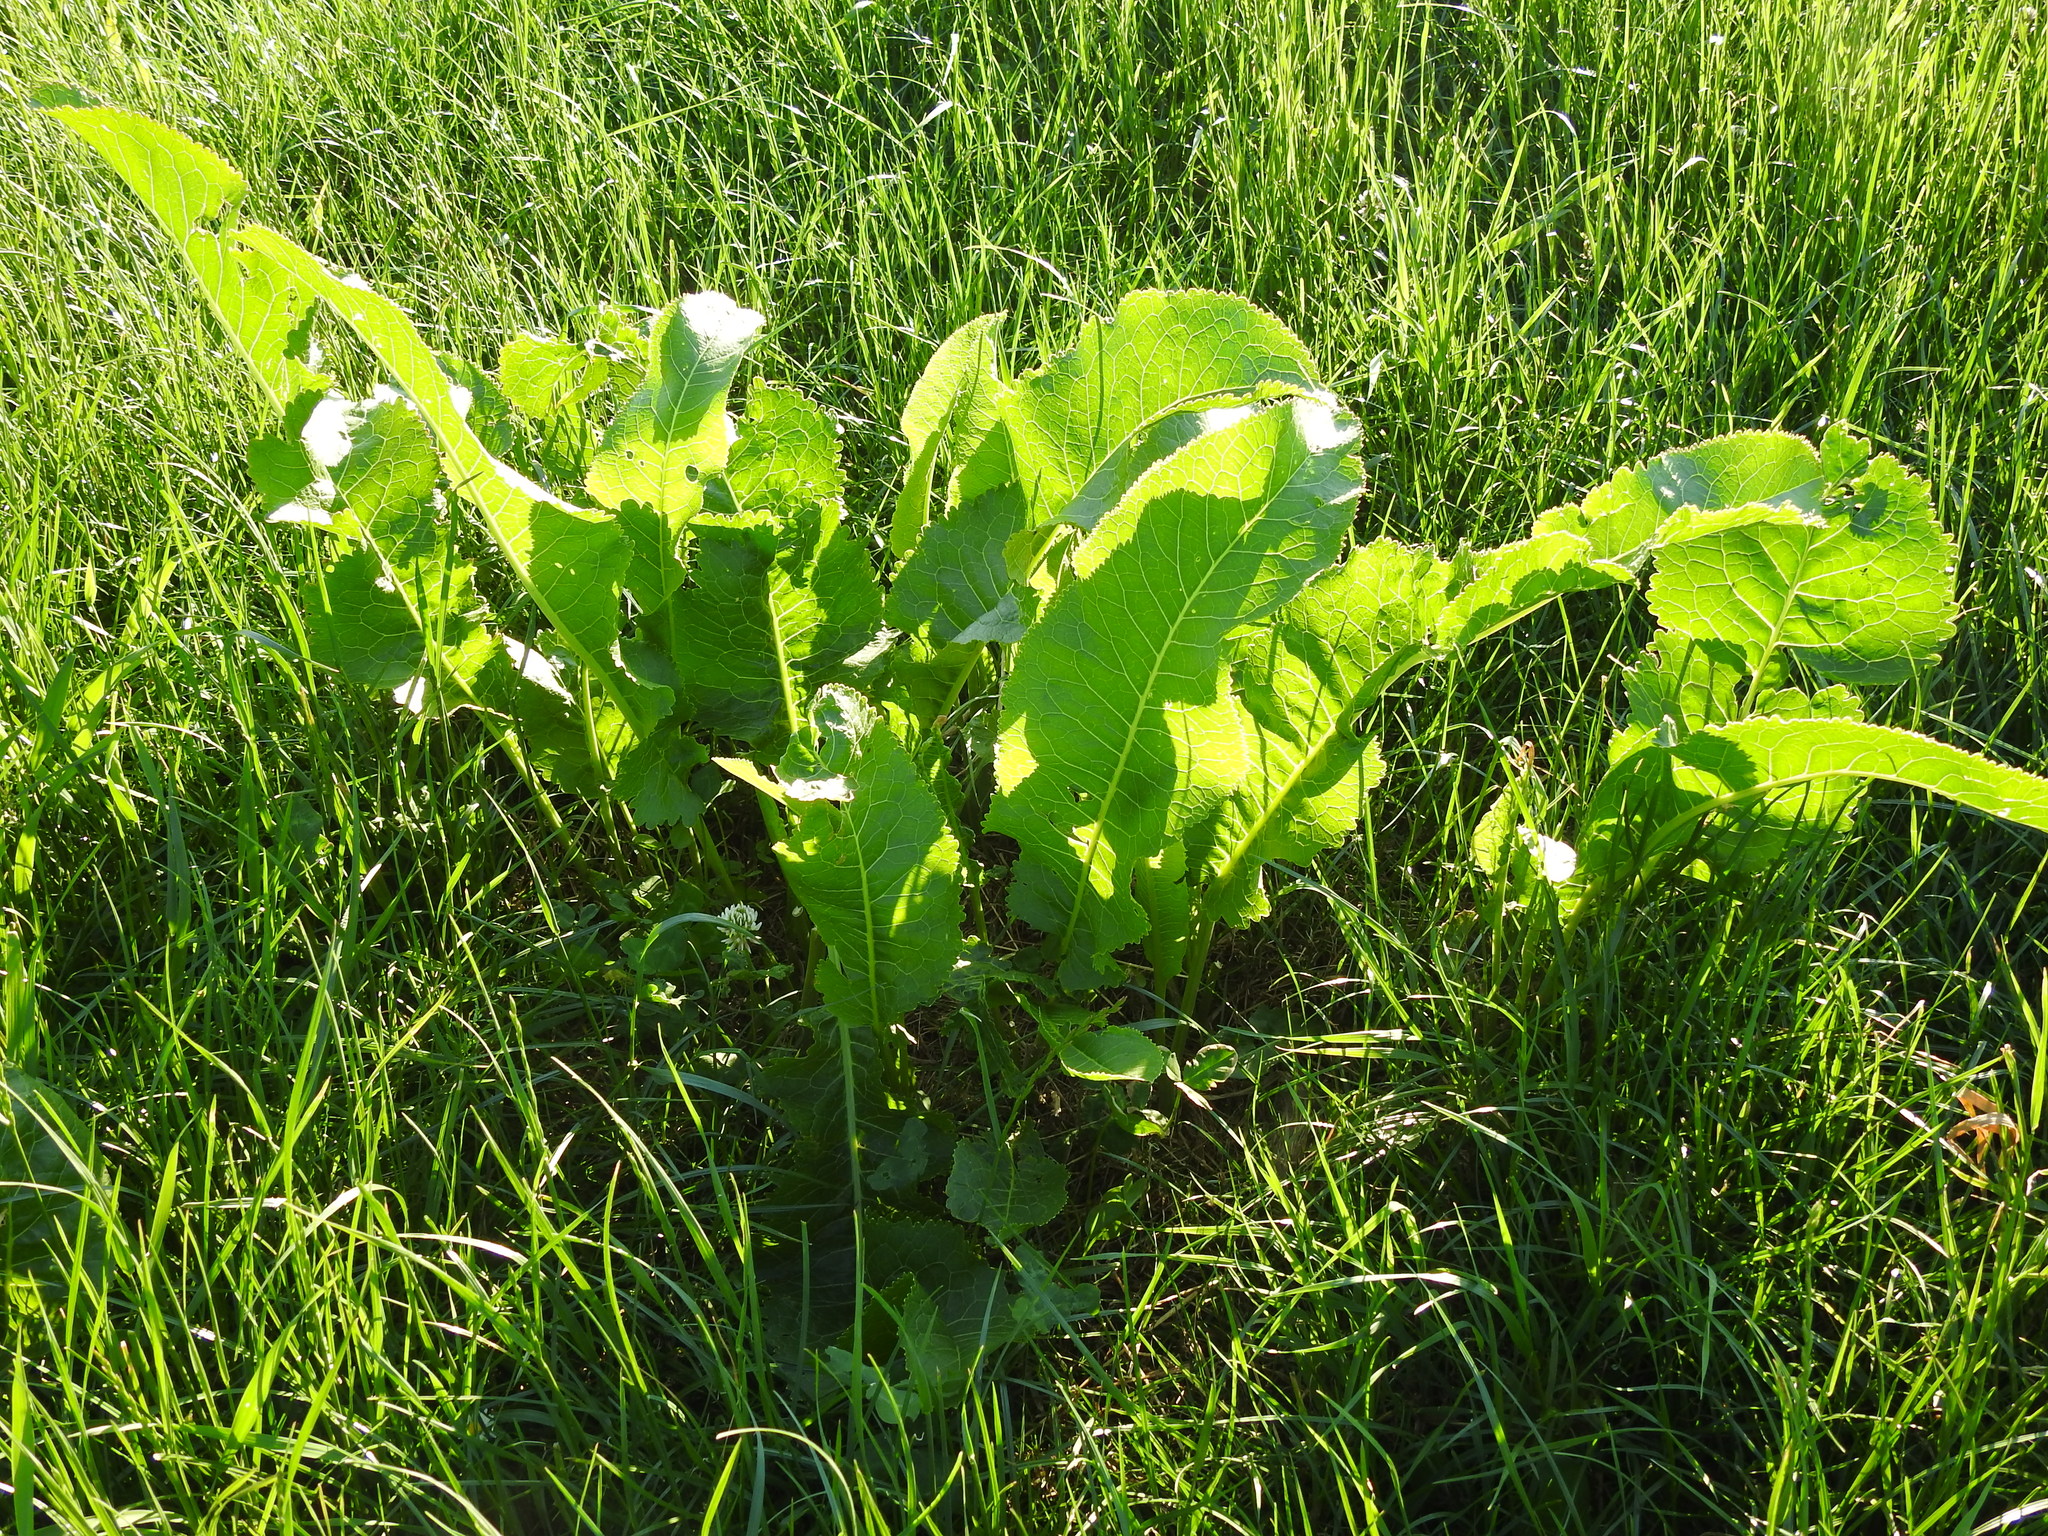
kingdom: Plantae
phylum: Tracheophyta
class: Magnoliopsida
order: Brassicales
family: Brassicaceae
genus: Armoracia
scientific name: Armoracia rusticana
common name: Horseradish
